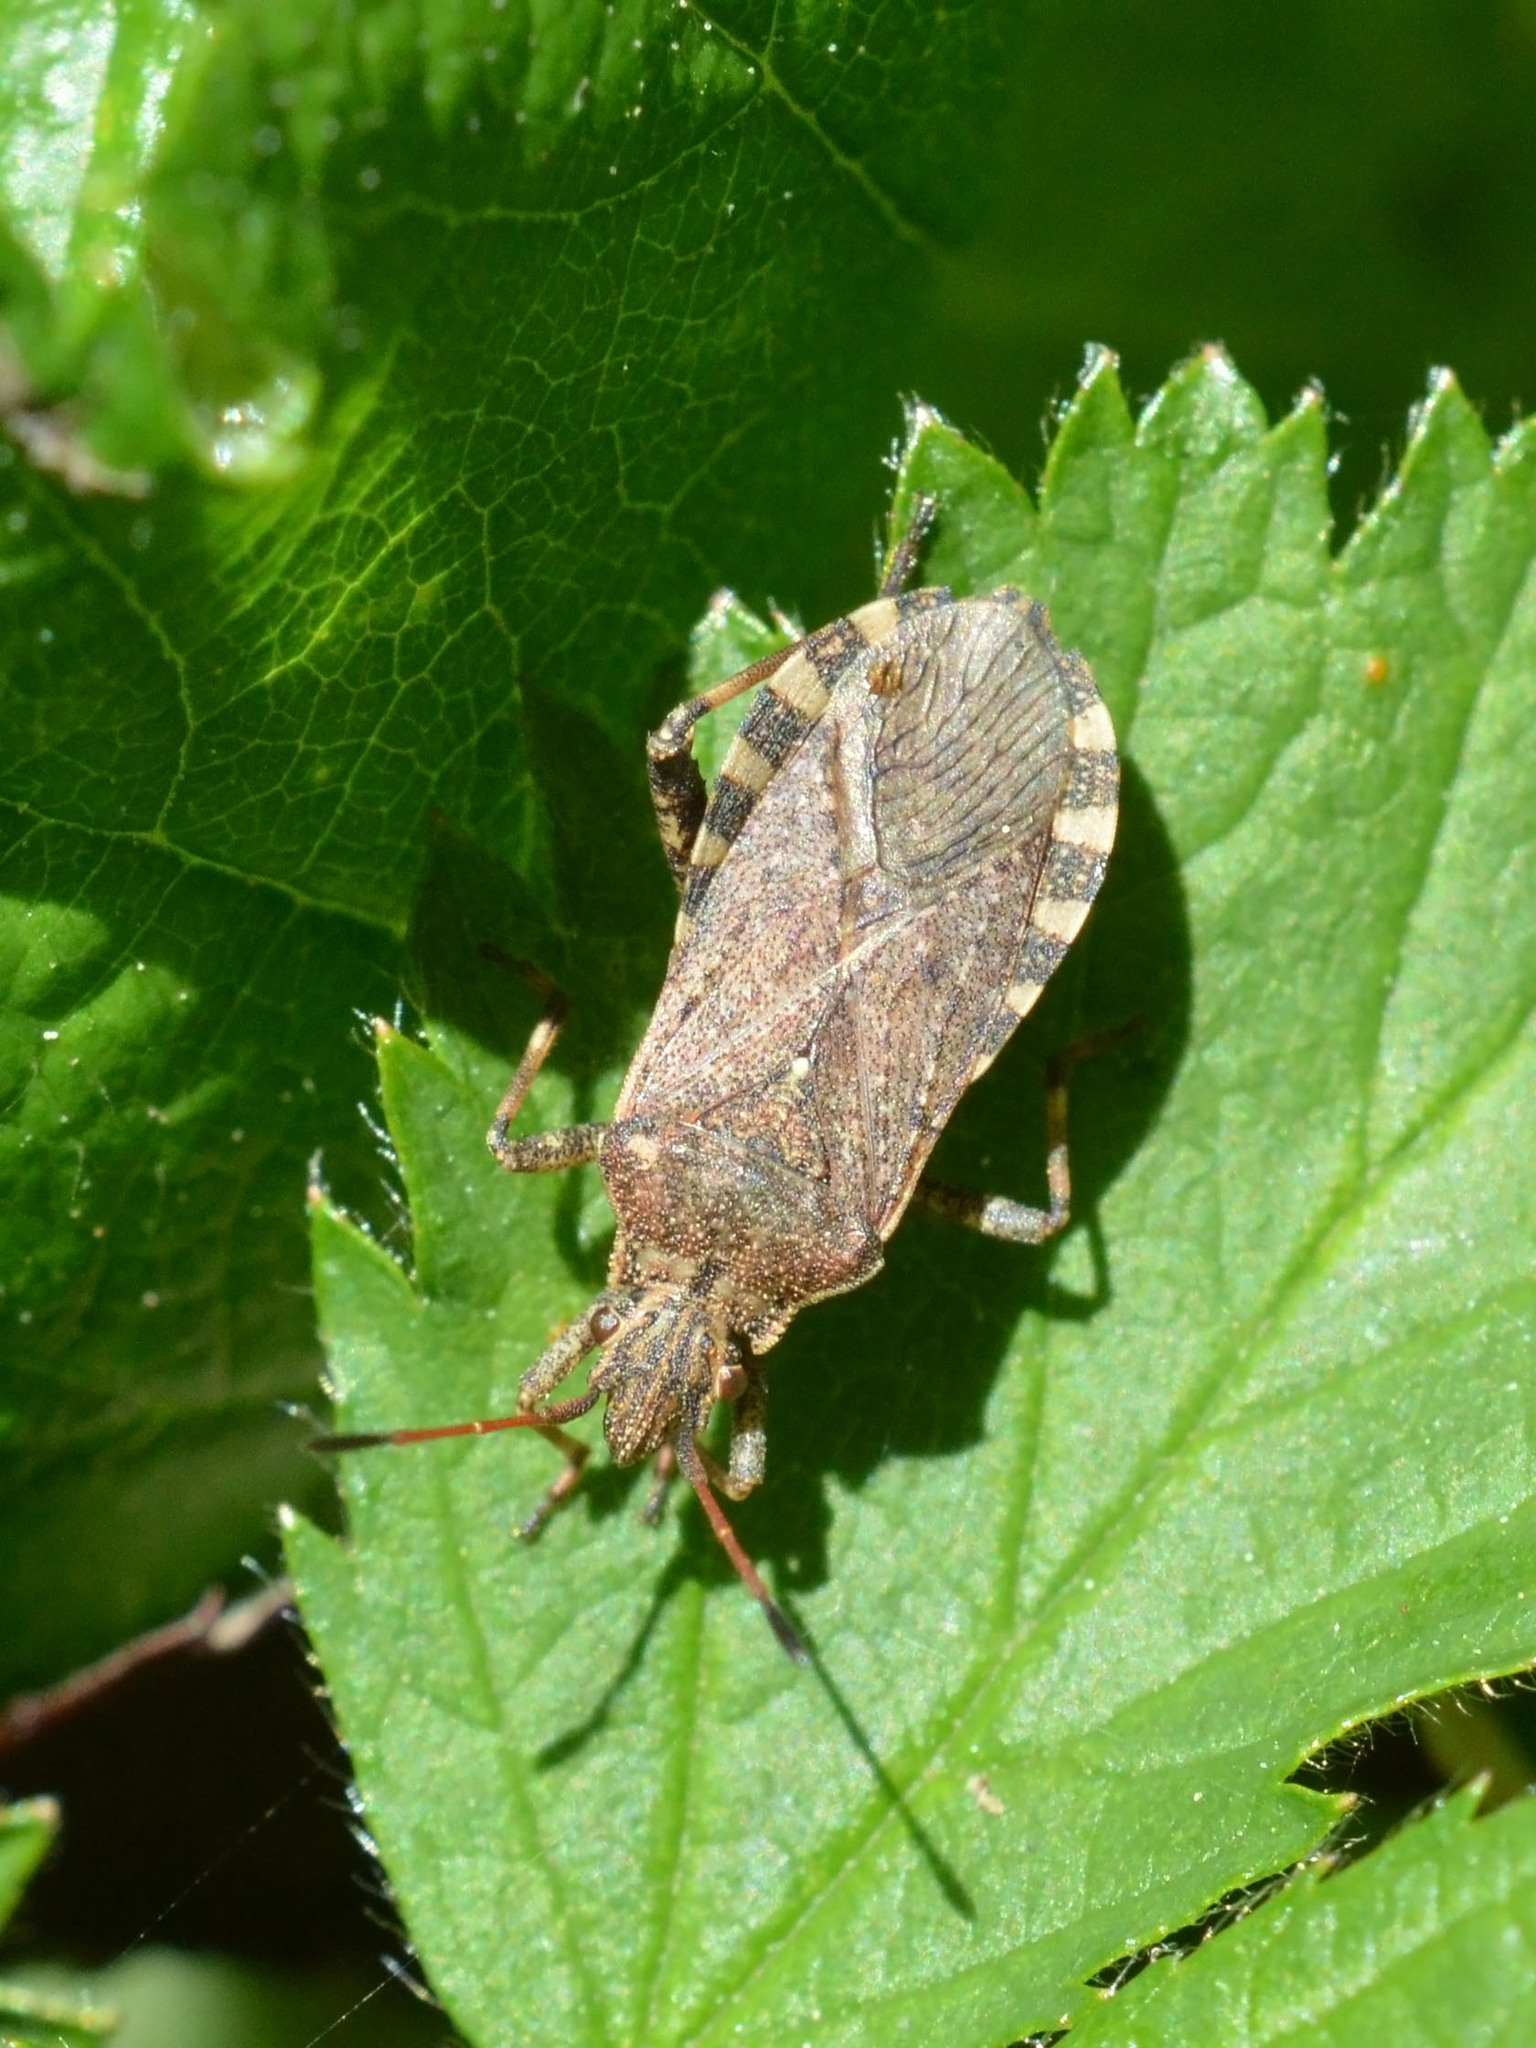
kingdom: Animalia
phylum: Arthropoda
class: Insecta
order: Hemiptera
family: Coreidae
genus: Ceraleptus
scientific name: Ceraleptus gracilicornis
